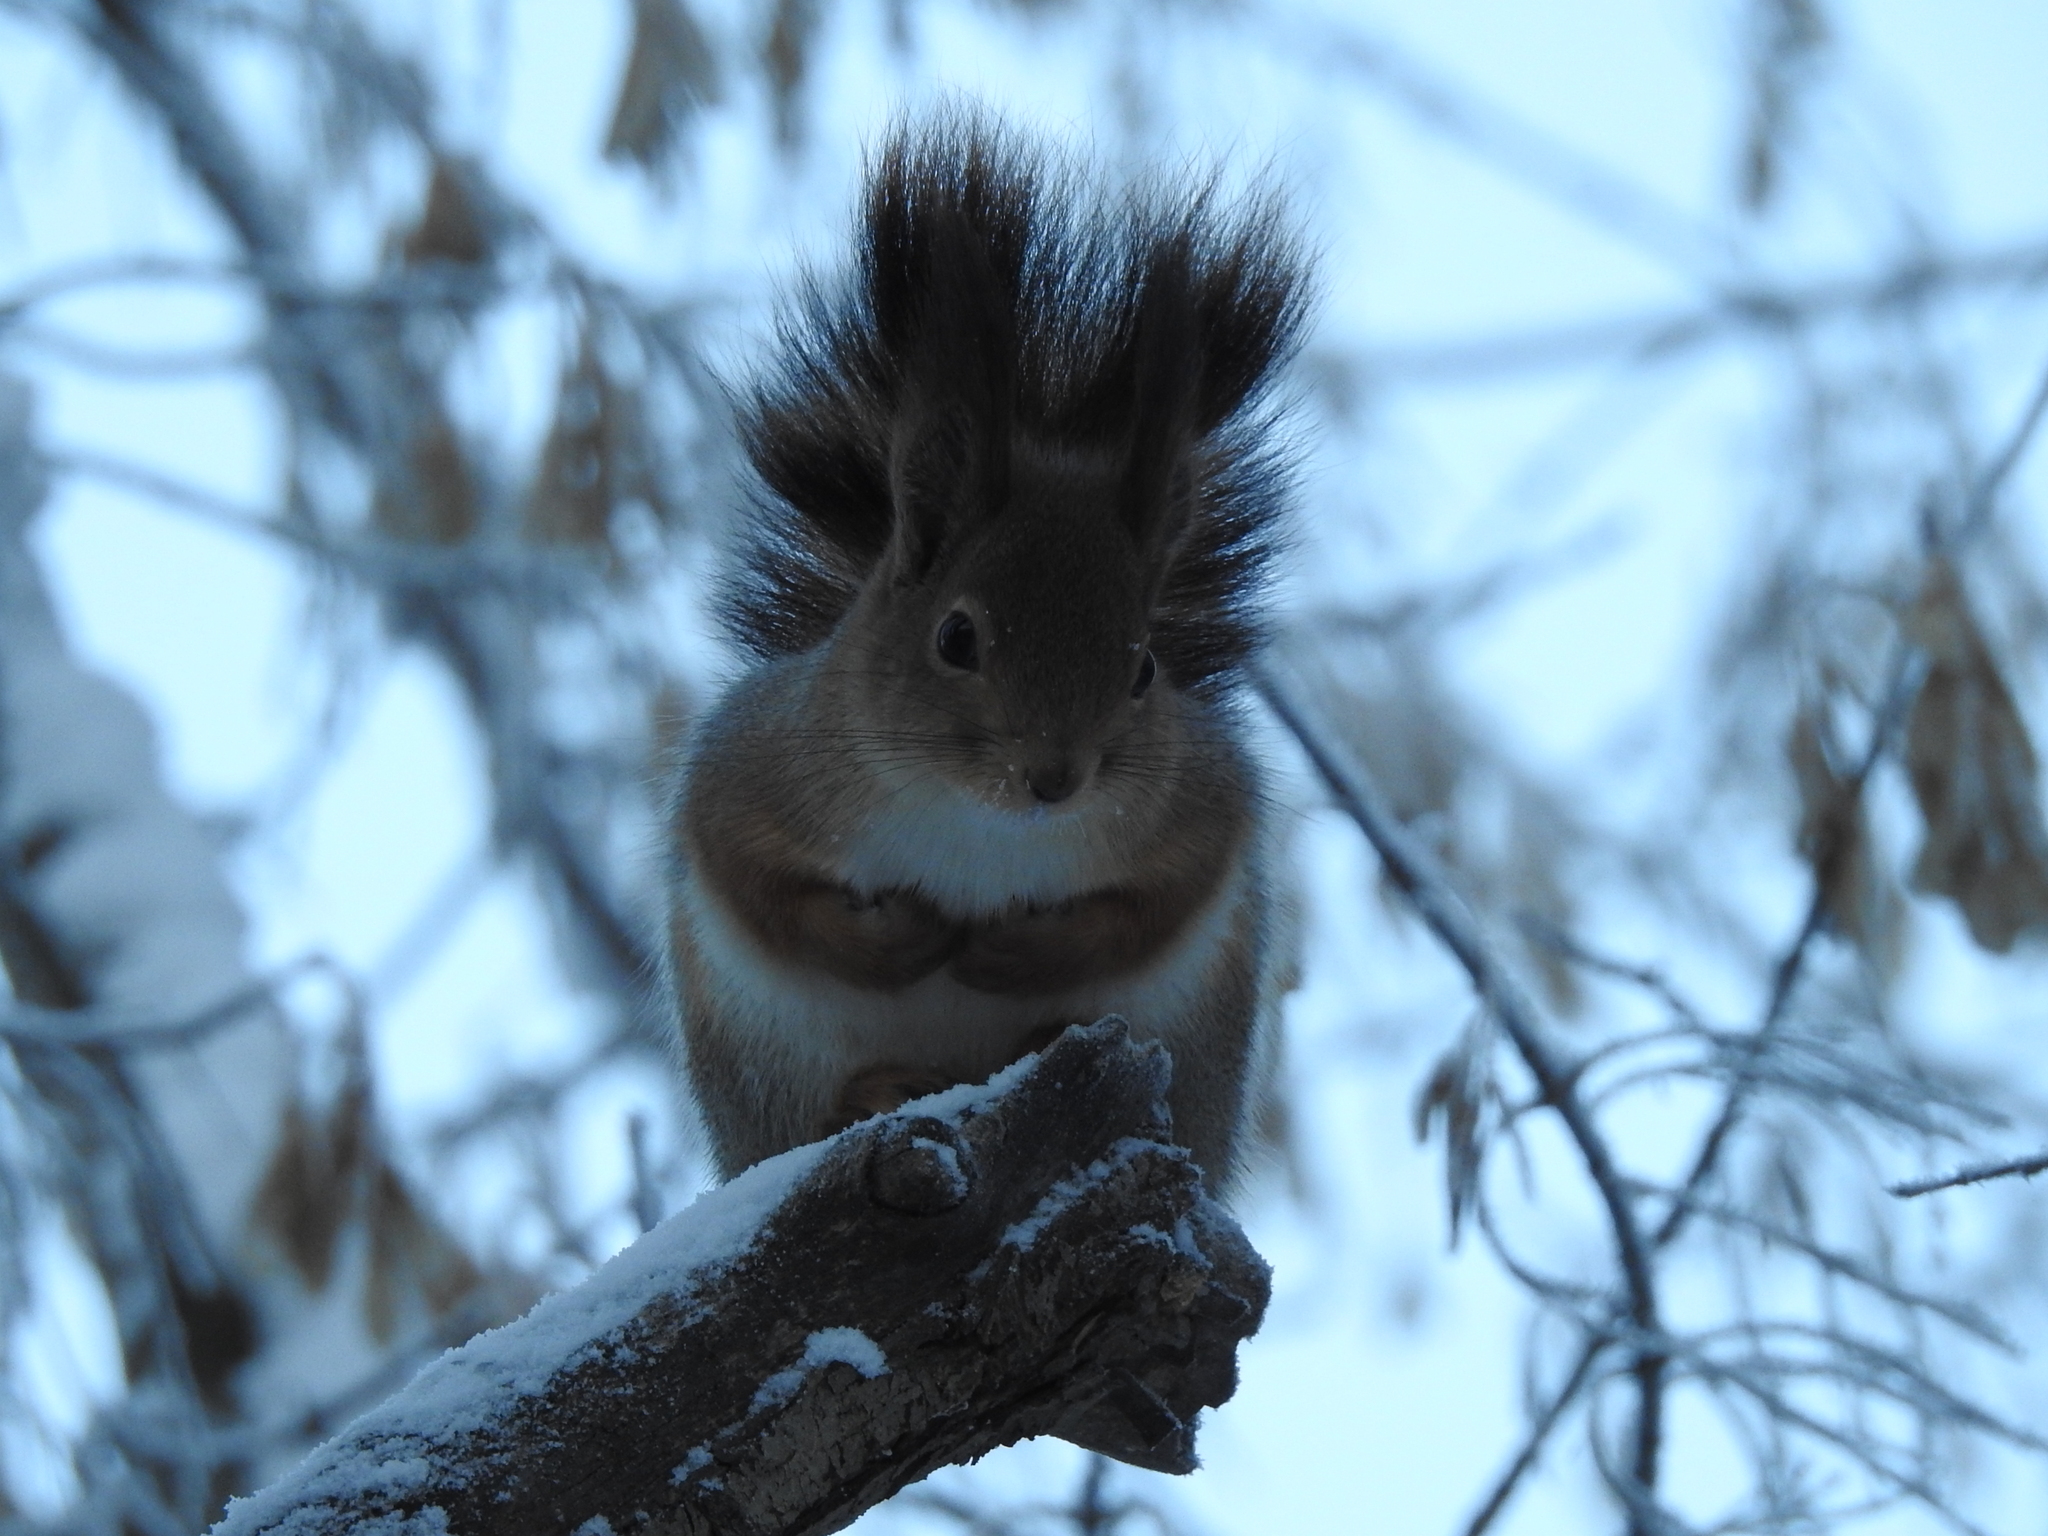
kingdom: Animalia
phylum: Chordata
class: Mammalia
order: Rodentia
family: Sciuridae
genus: Sciurus
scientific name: Sciurus vulgaris
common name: Eurasian red squirrel
